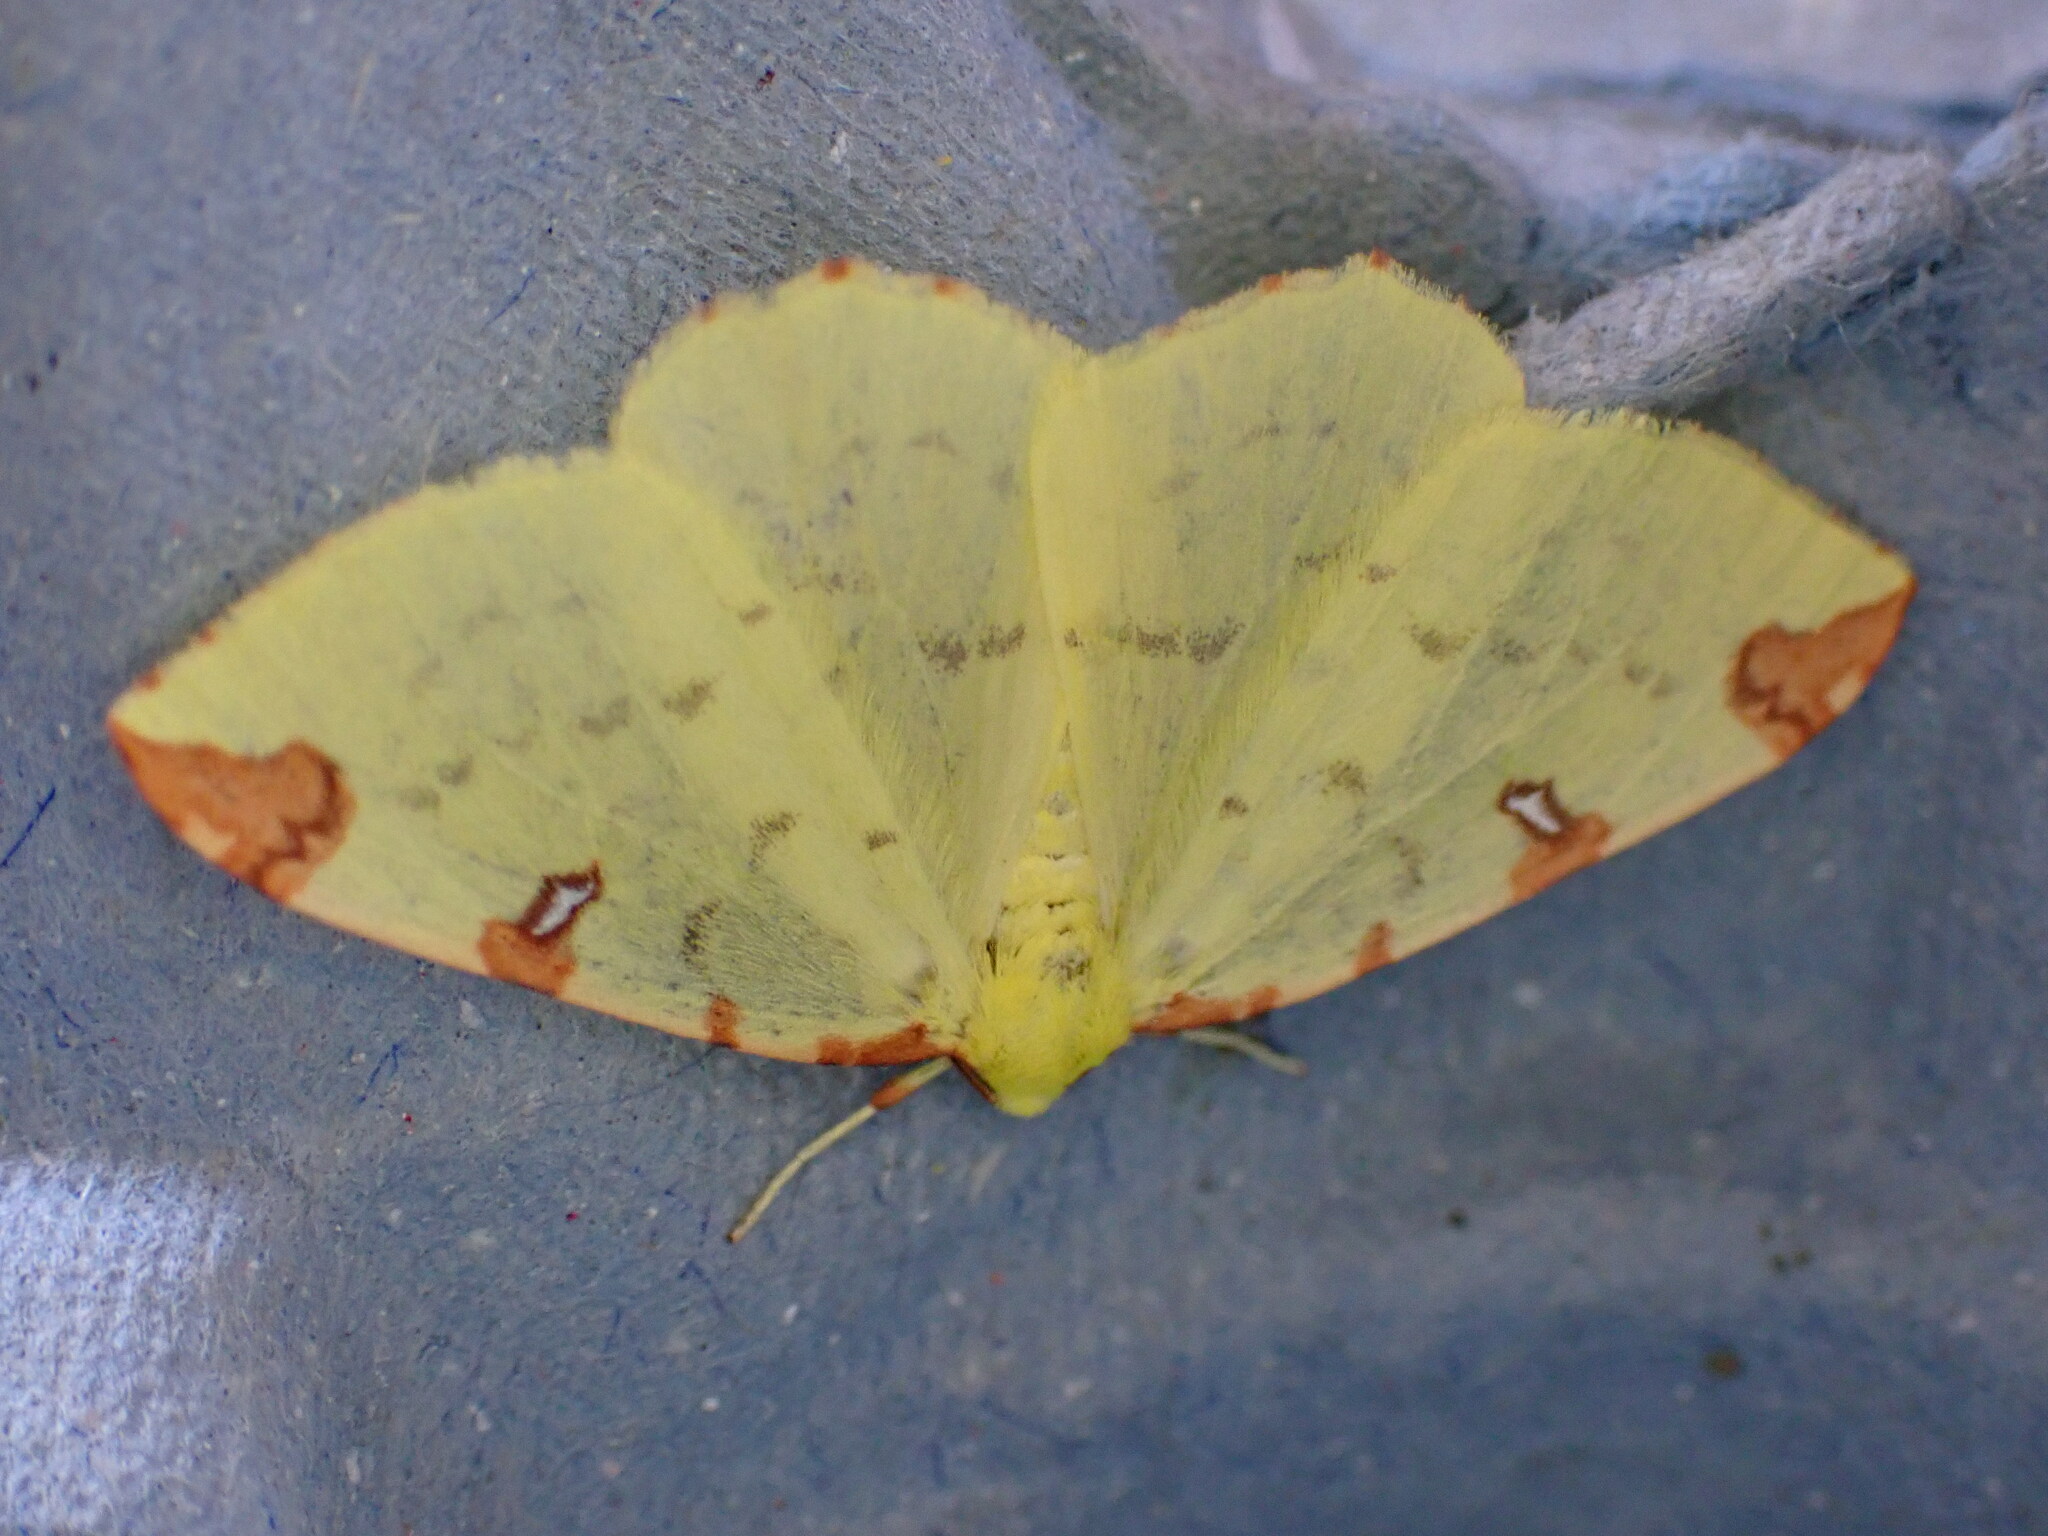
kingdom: Animalia
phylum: Arthropoda
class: Insecta
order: Lepidoptera
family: Geometridae
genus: Opisthograptis
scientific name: Opisthograptis luteolata
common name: Brimstone moth
